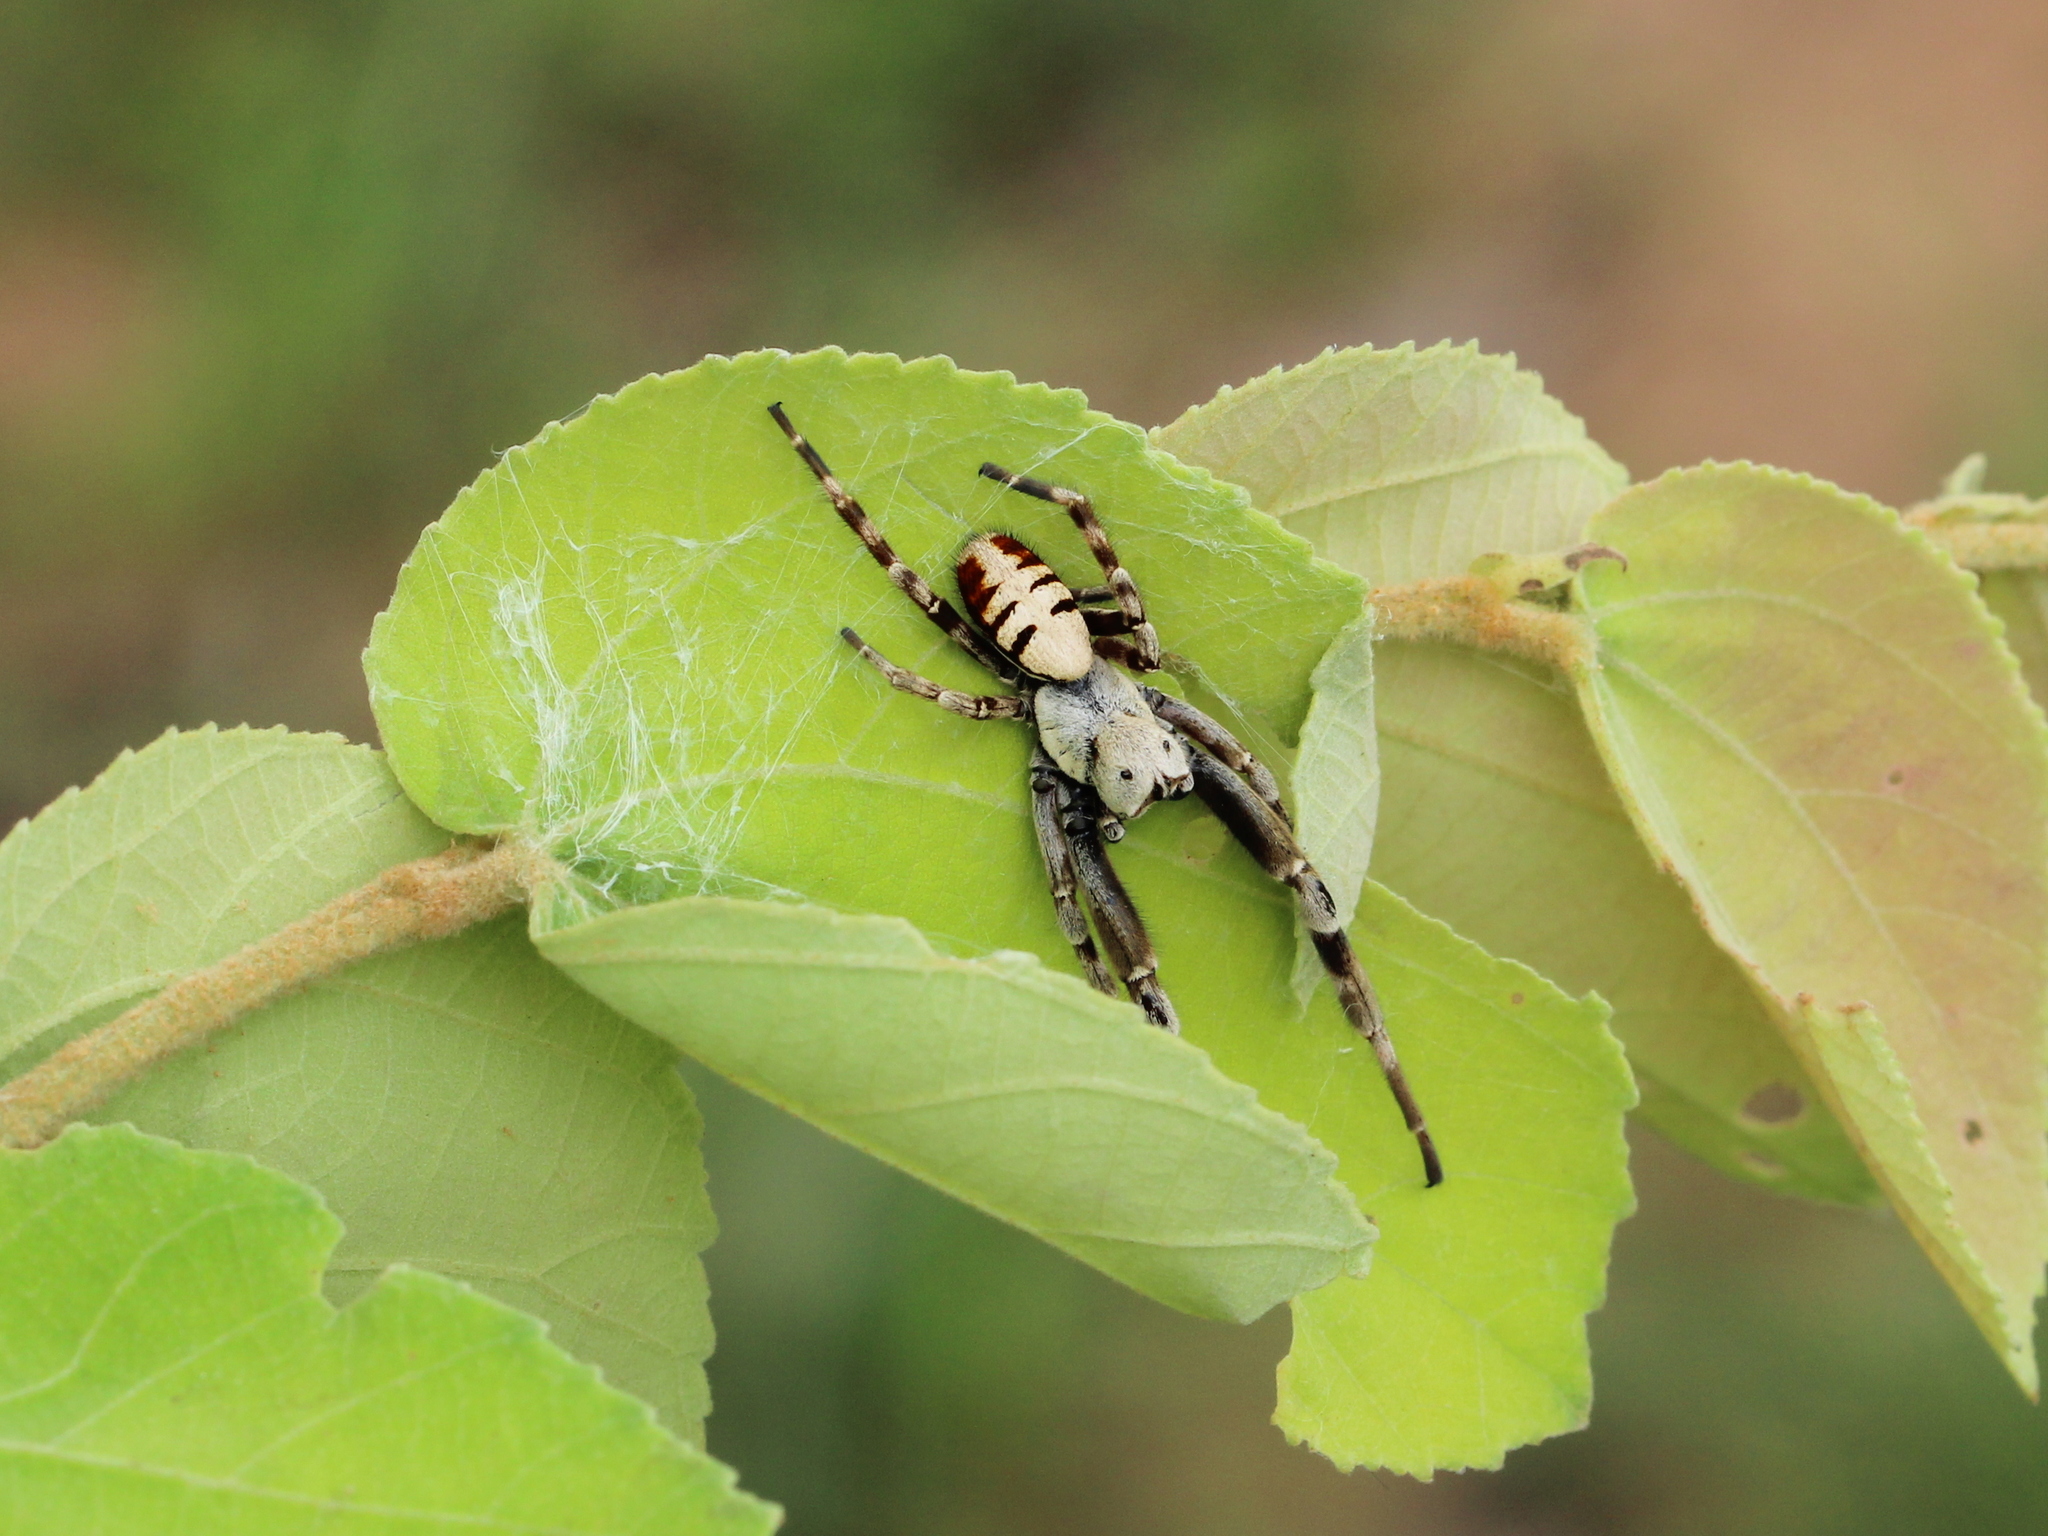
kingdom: Animalia
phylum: Arthropoda
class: Arachnida
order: Araneae
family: Eresidae
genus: Stegodyphus
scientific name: Stegodyphus pacificus
